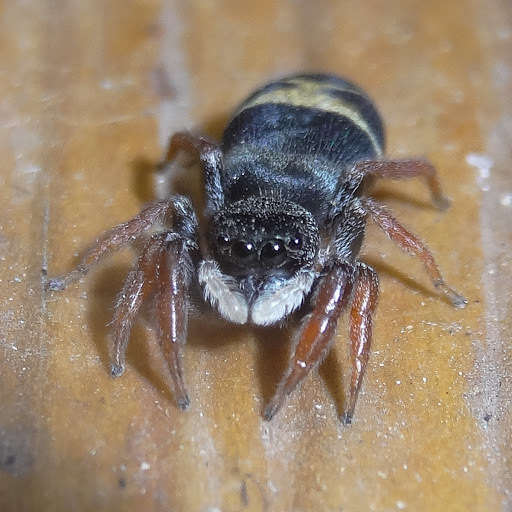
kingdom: Animalia
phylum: Arthropoda
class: Arachnida
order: Araneae
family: Salticidae
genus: Apricia
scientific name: Apricia jovialis
